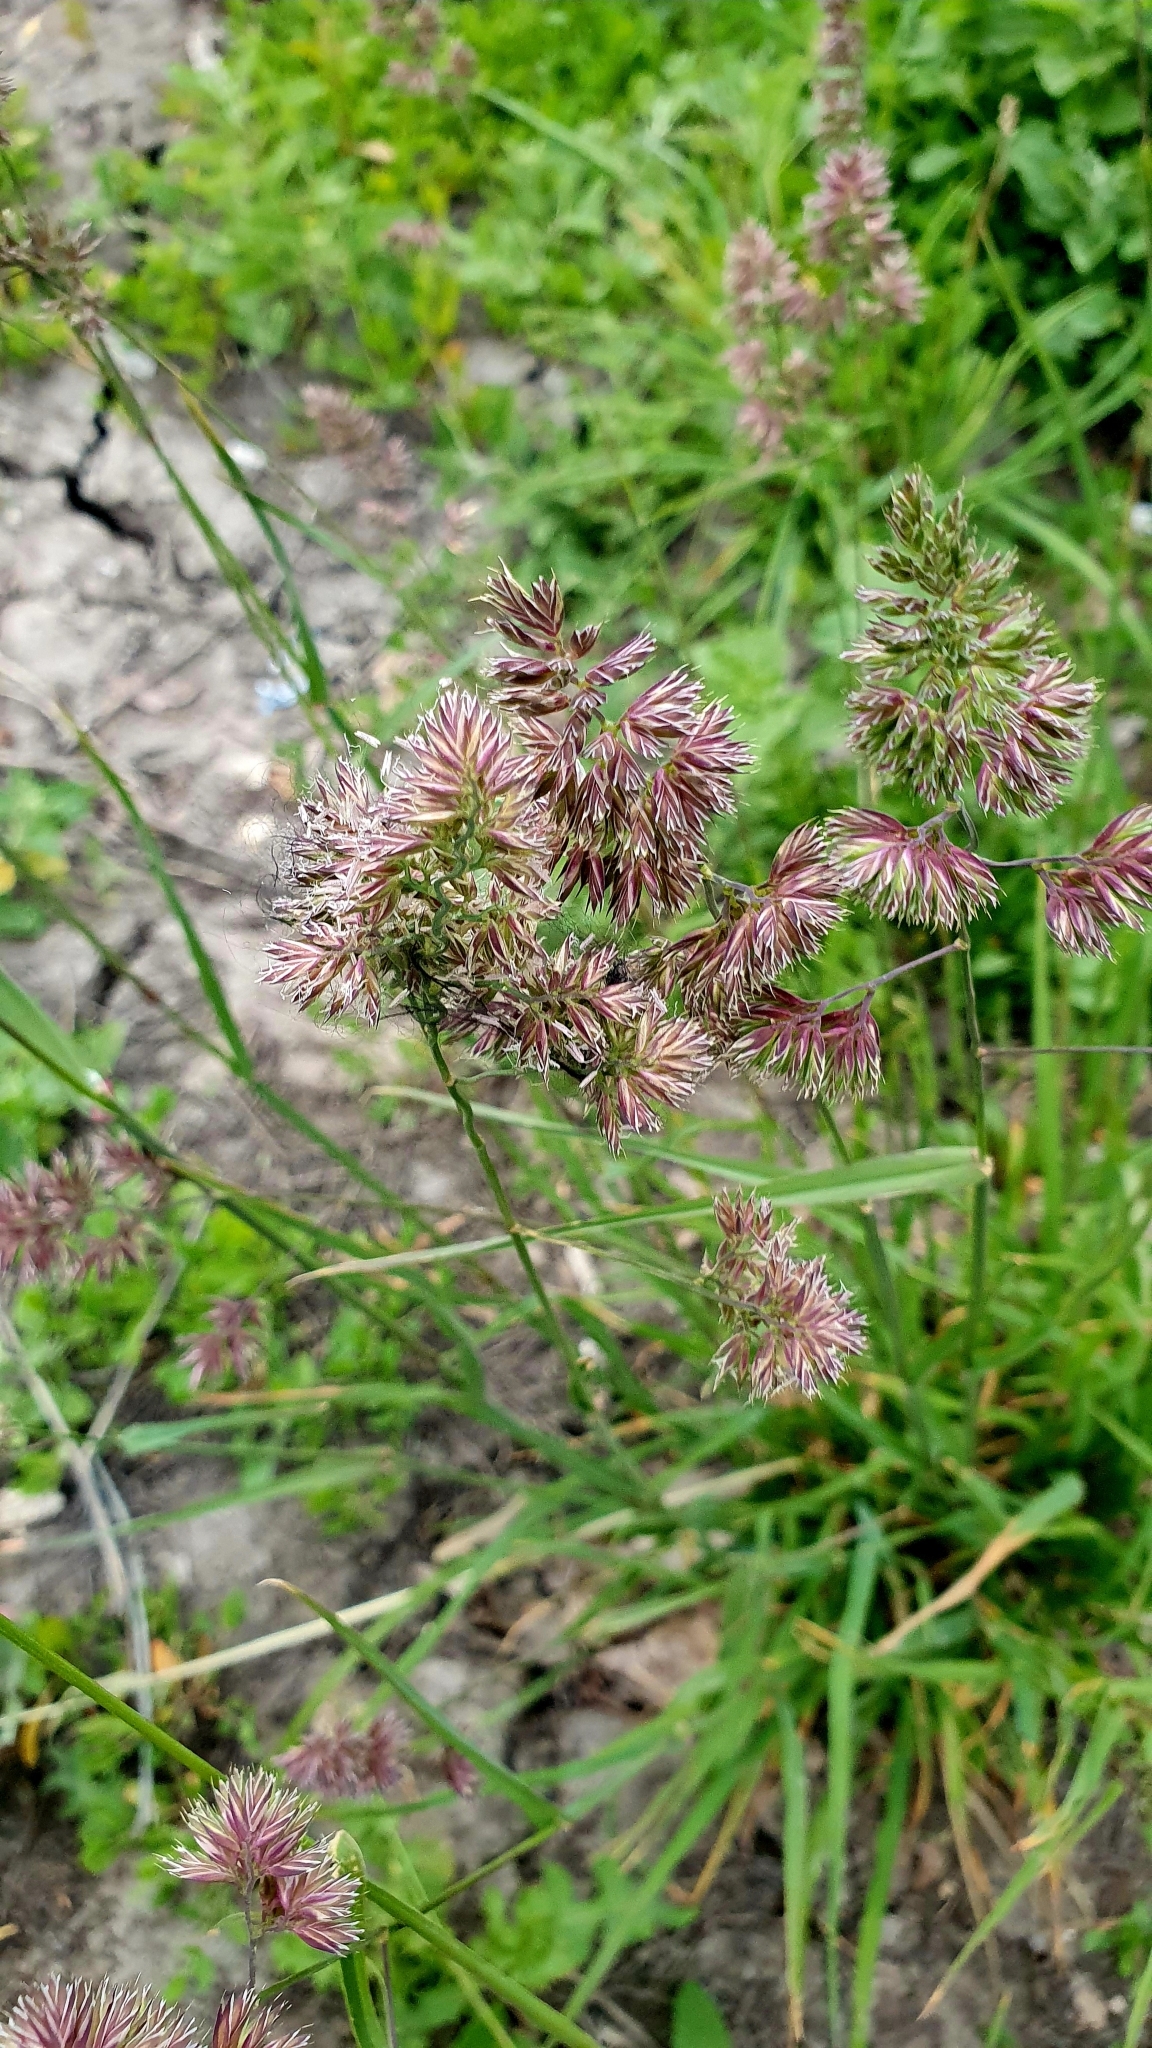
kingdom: Plantae
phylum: Tracheophyta
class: Liliopsida
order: Poales
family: Poaceae
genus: Dactylis
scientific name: Dactylis glomerata
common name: Orchardgrass
